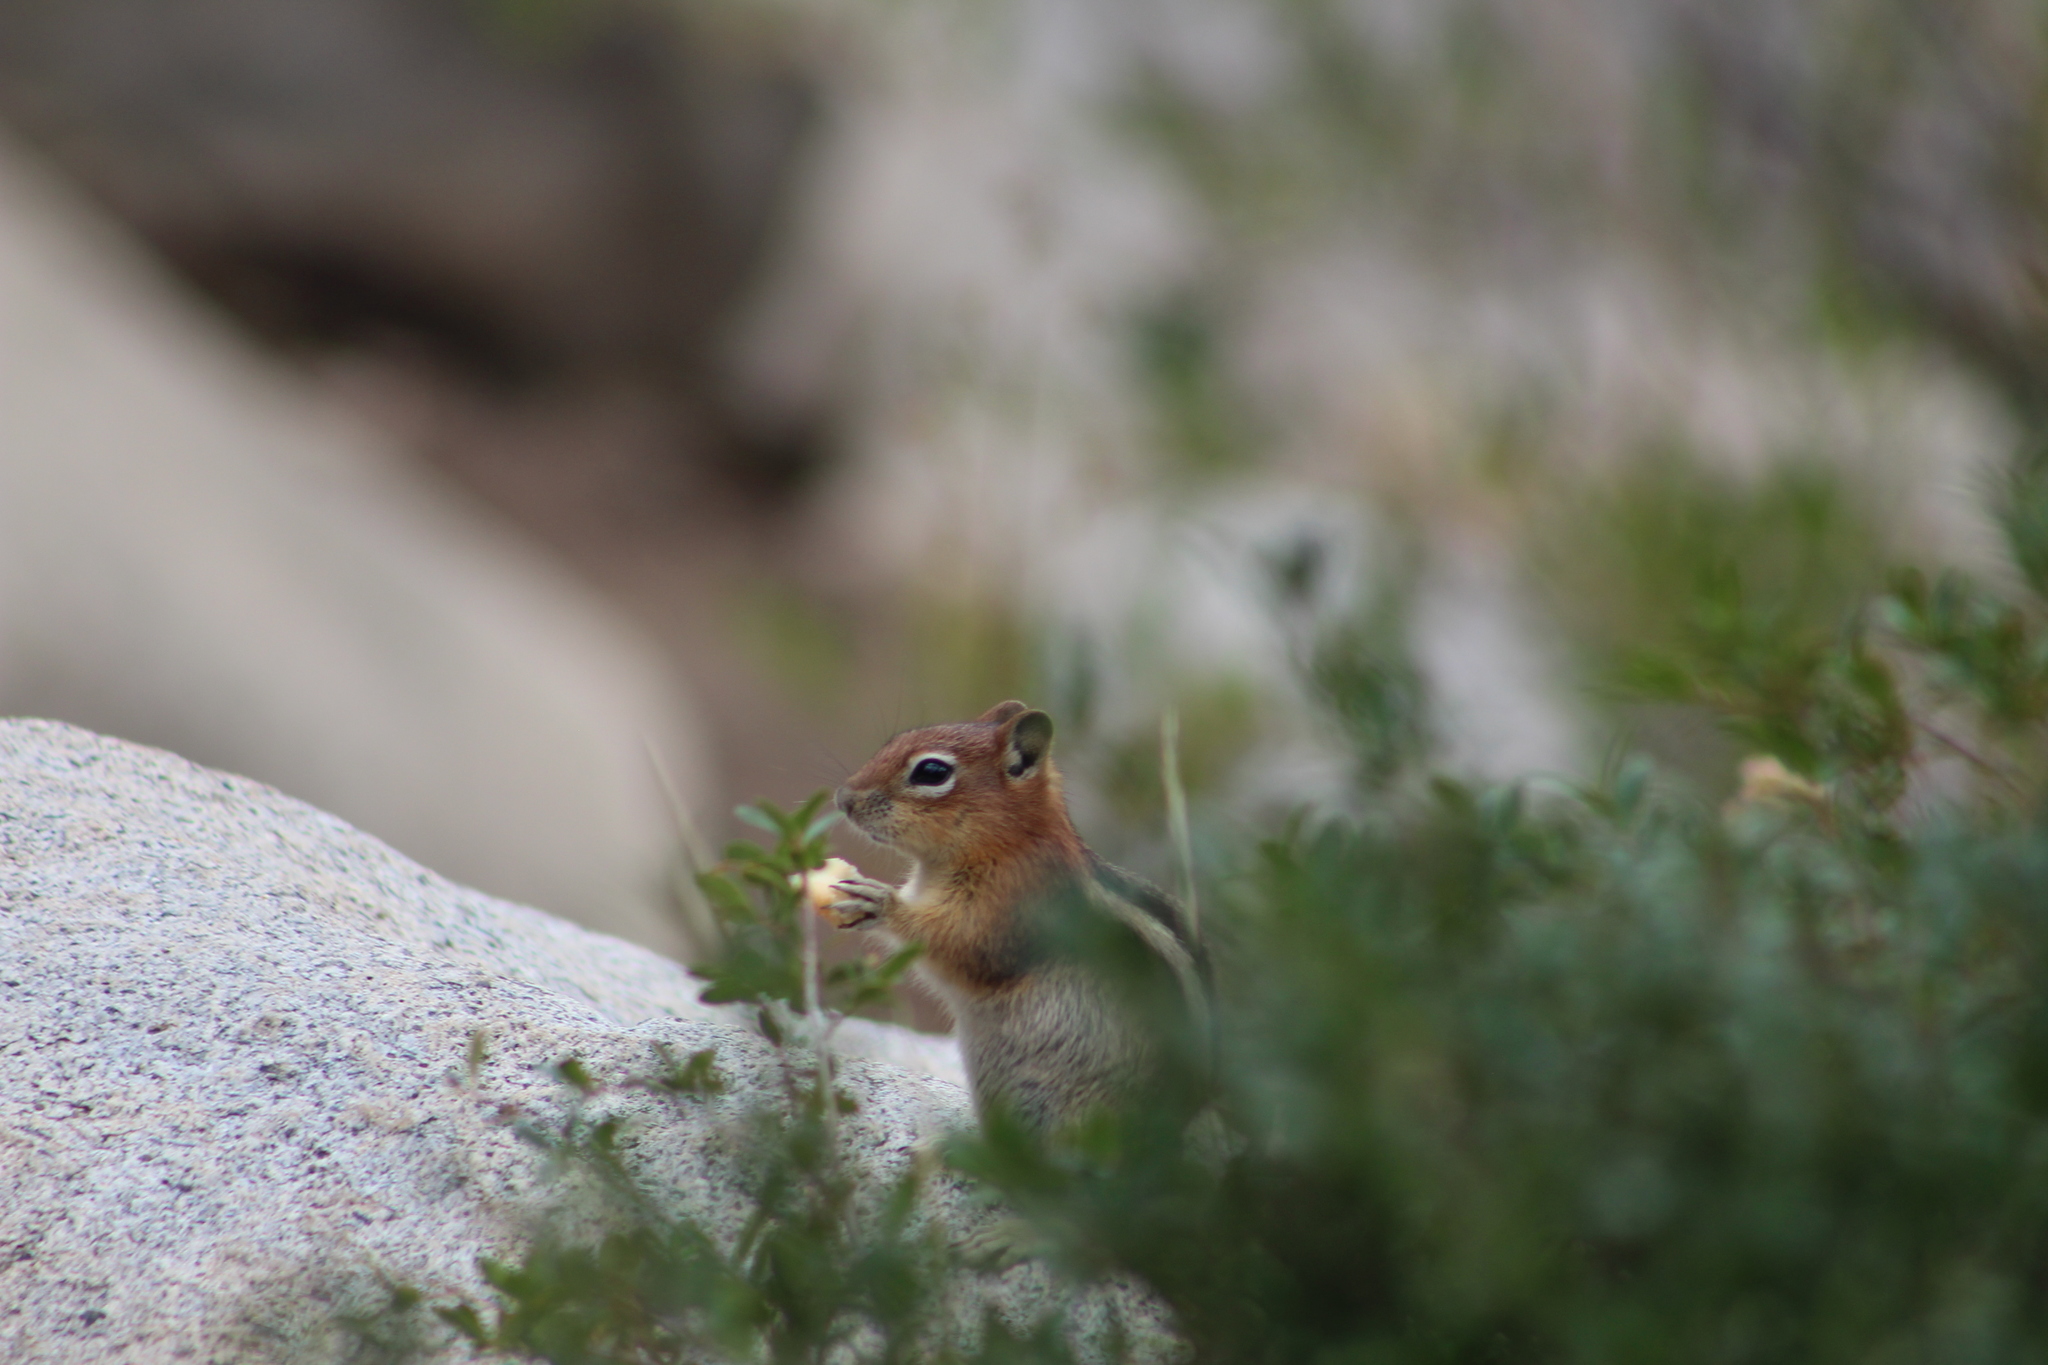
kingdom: Animalia
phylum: Chordata
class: Mammalia
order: Rodentia
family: Sciuridae
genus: Callospermophilus
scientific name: Callospermophilus lateralis
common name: Golden-mantled ground squirrel
